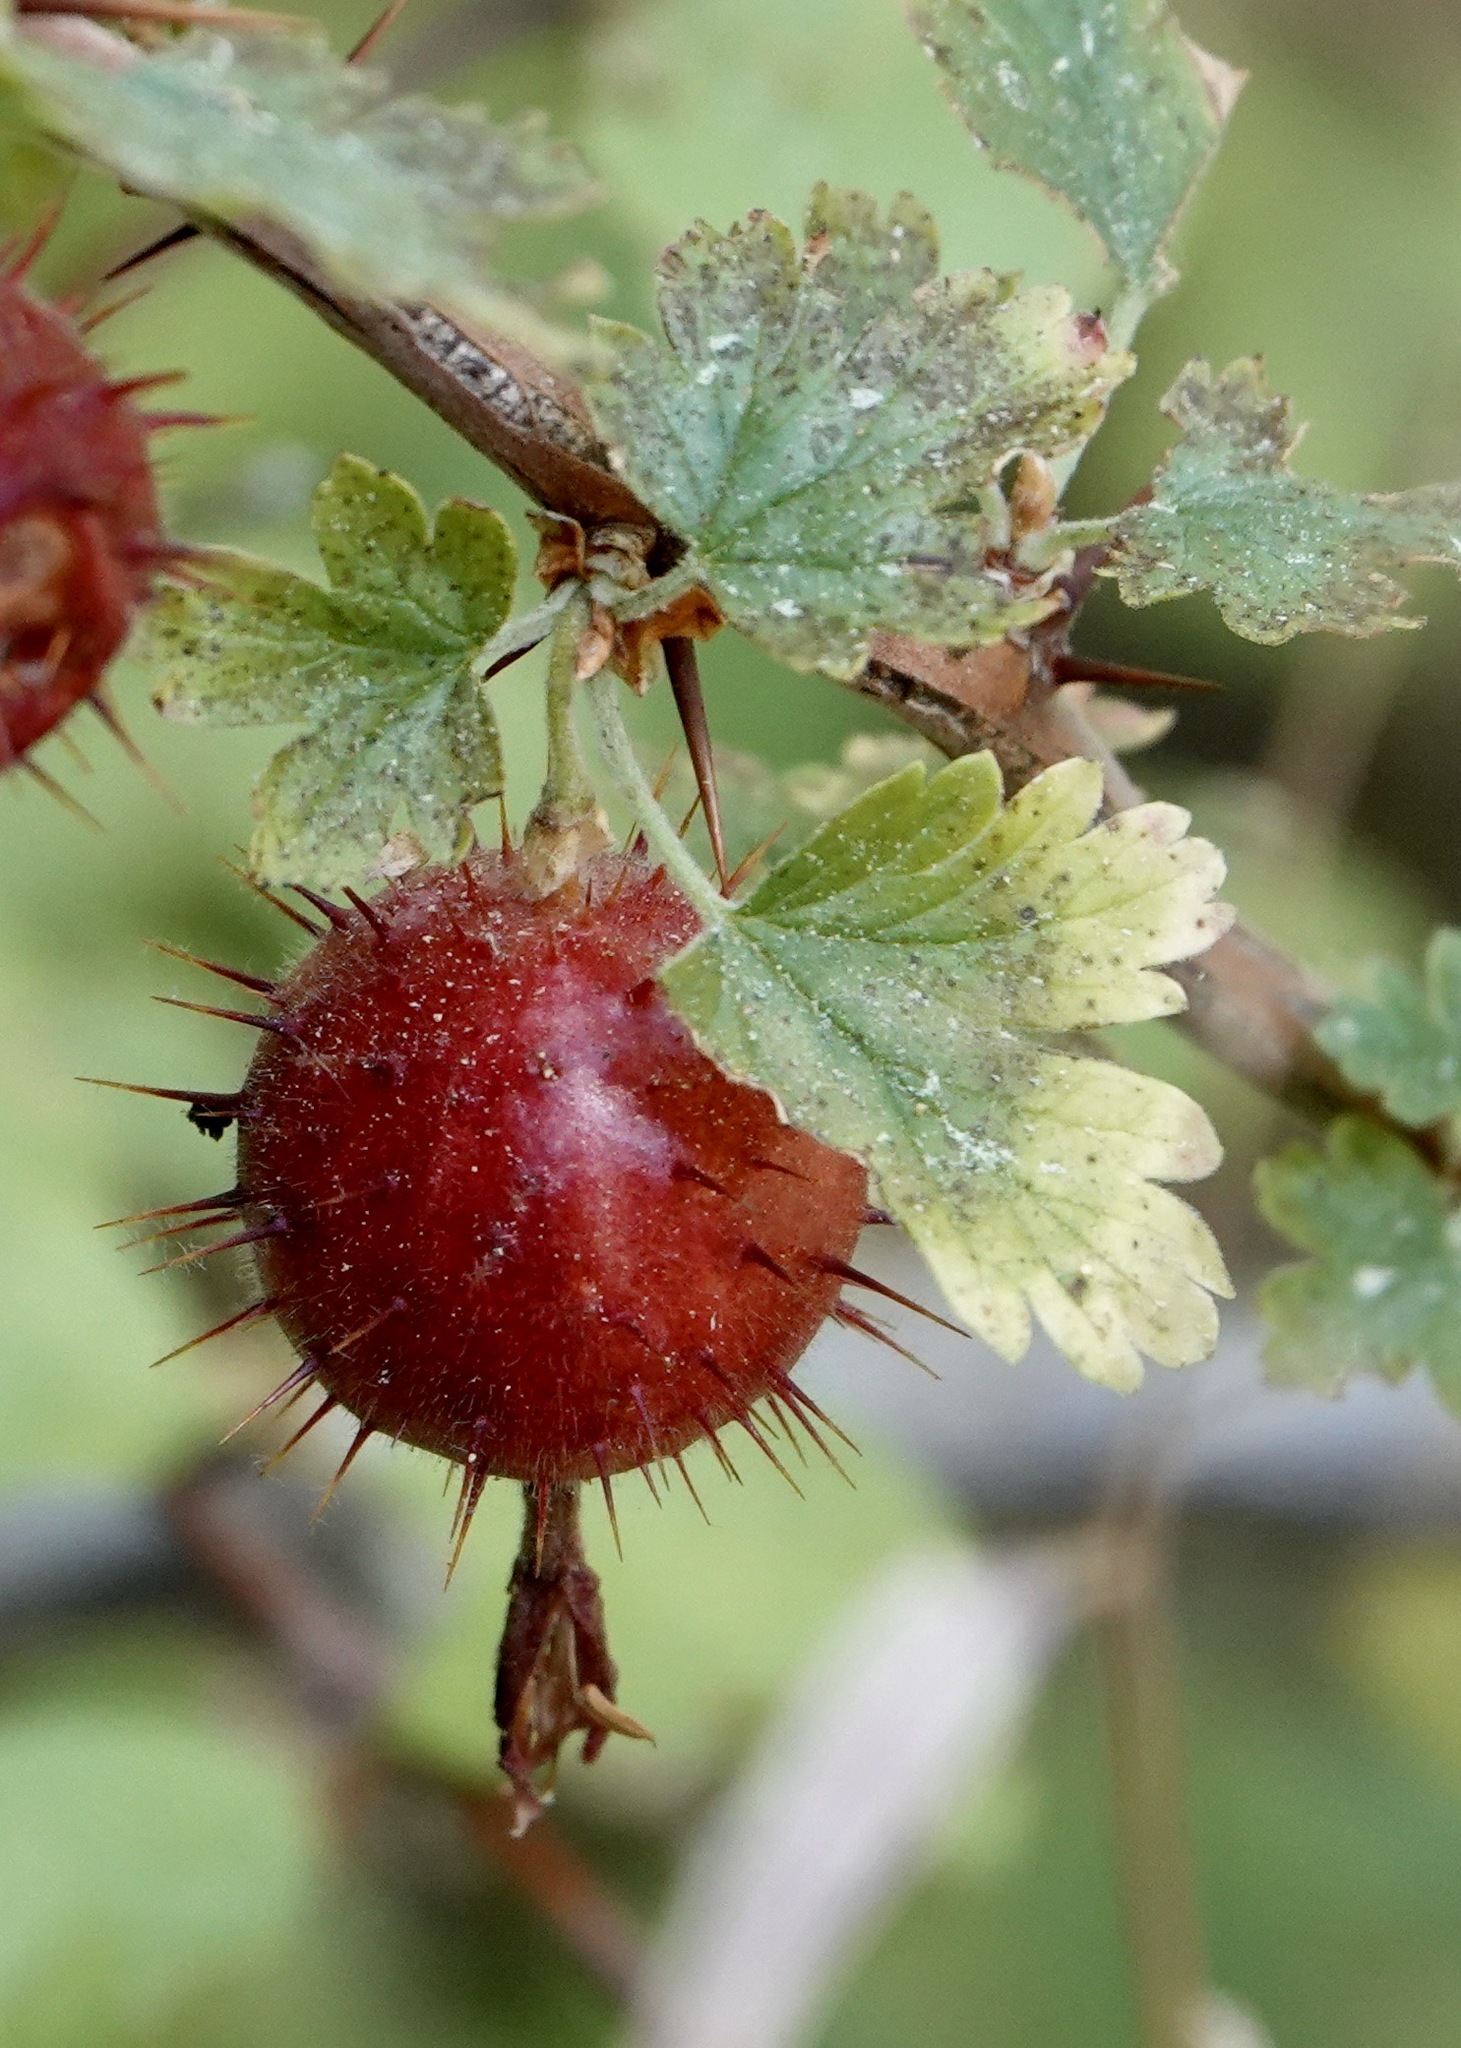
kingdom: Plantae
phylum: Tracheophyta
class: Magnoliopsida
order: Saxifragales
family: Grossulariaceae
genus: Ribes
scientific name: Ribes roezlii
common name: Sierra gooseberry
